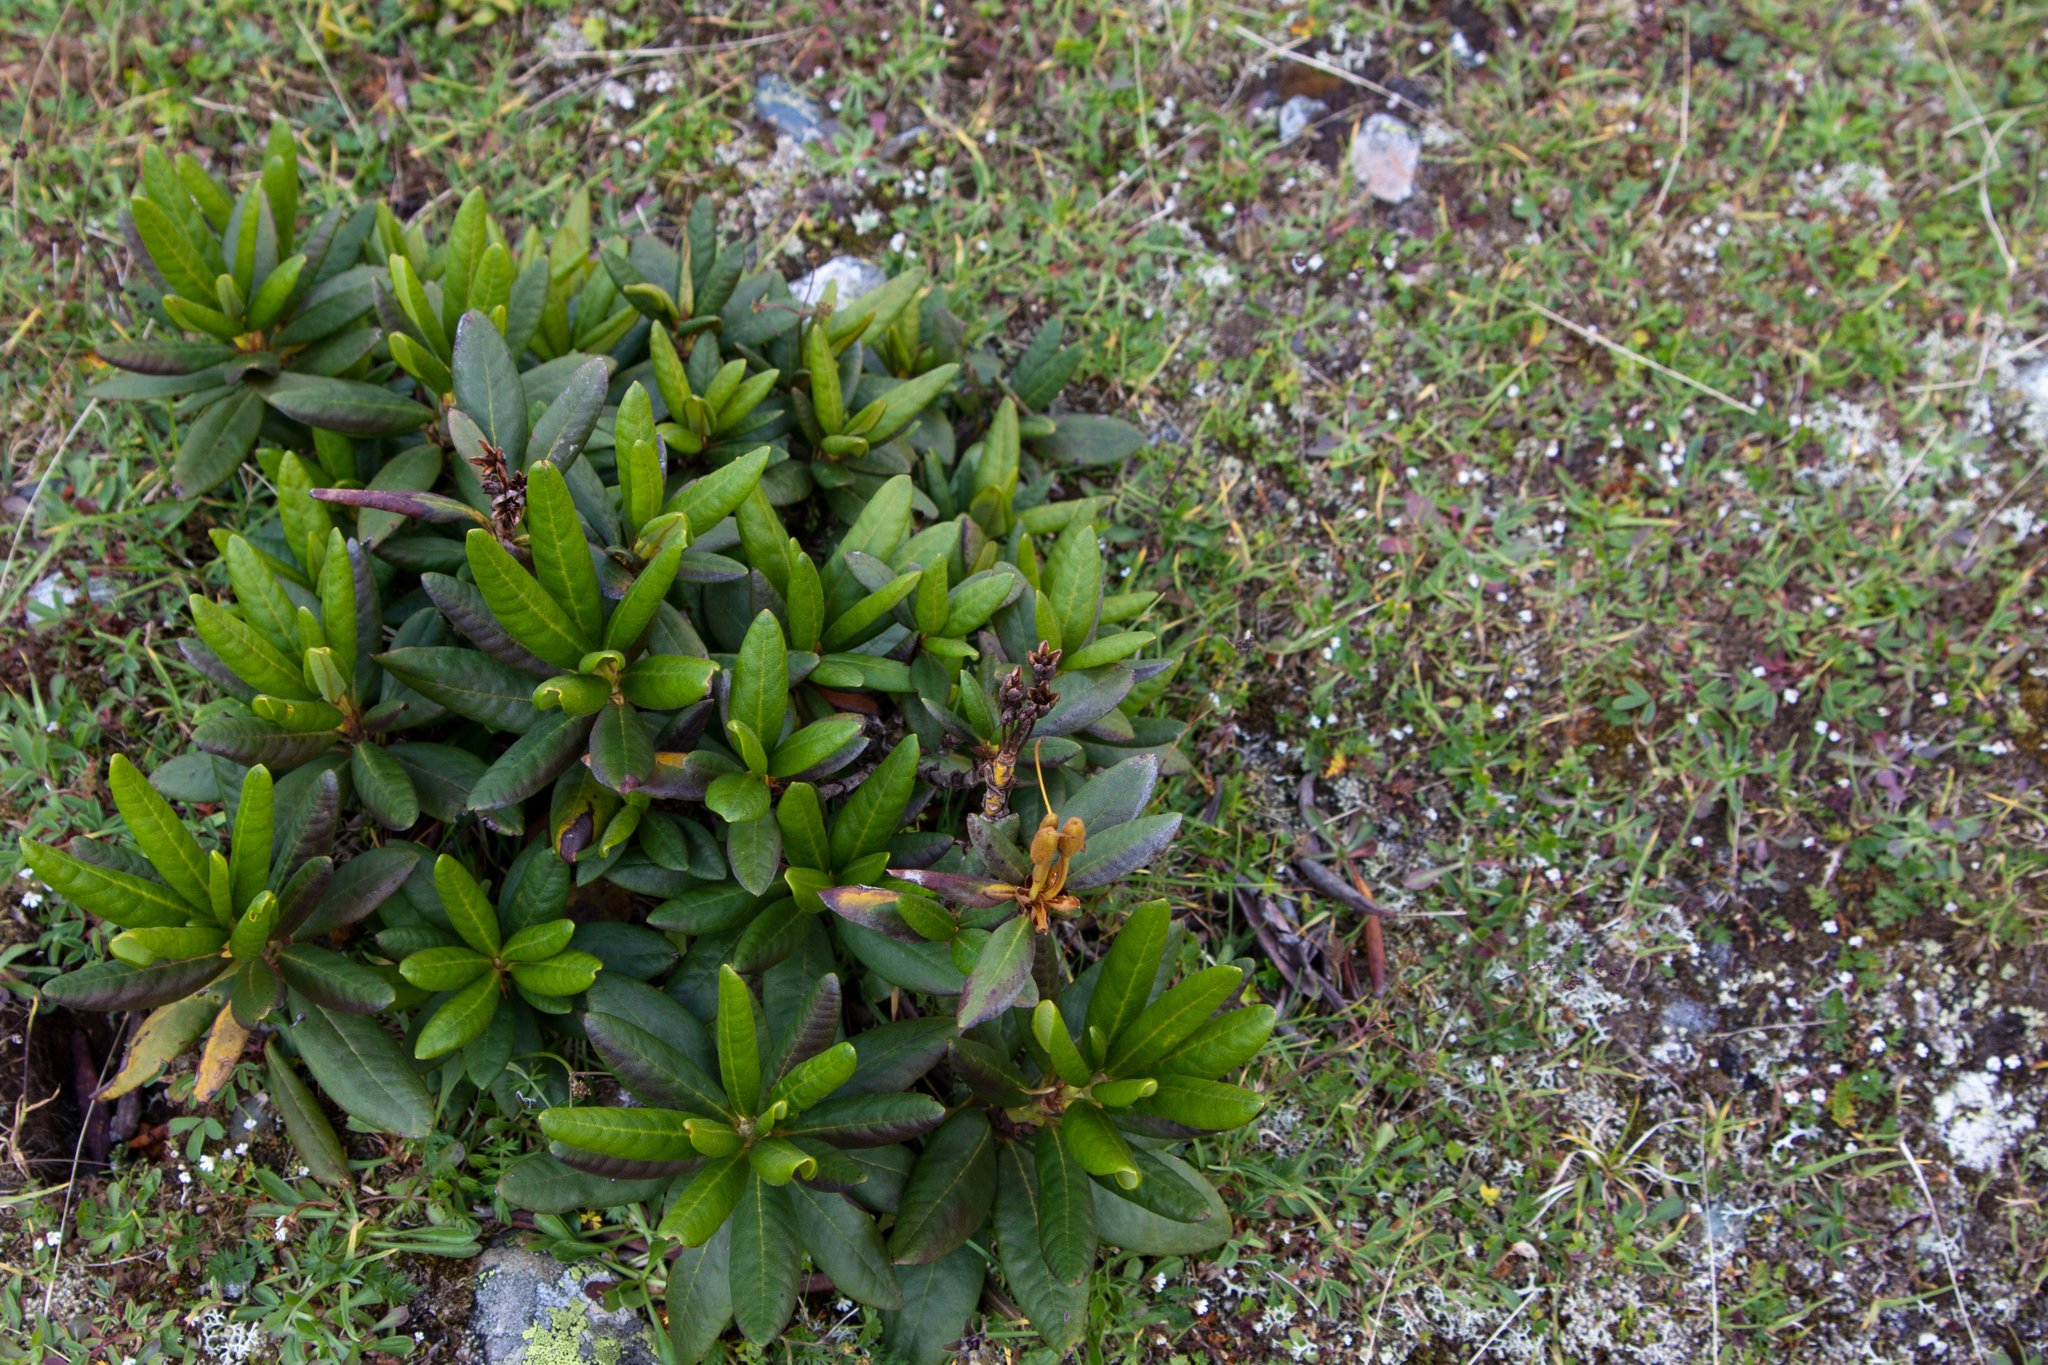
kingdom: Plantae
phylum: Tracheophyta
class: Magnoliopsida
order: Ericales
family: Ericaceae
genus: Rhododendron
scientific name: Rhododendron caucasicum
